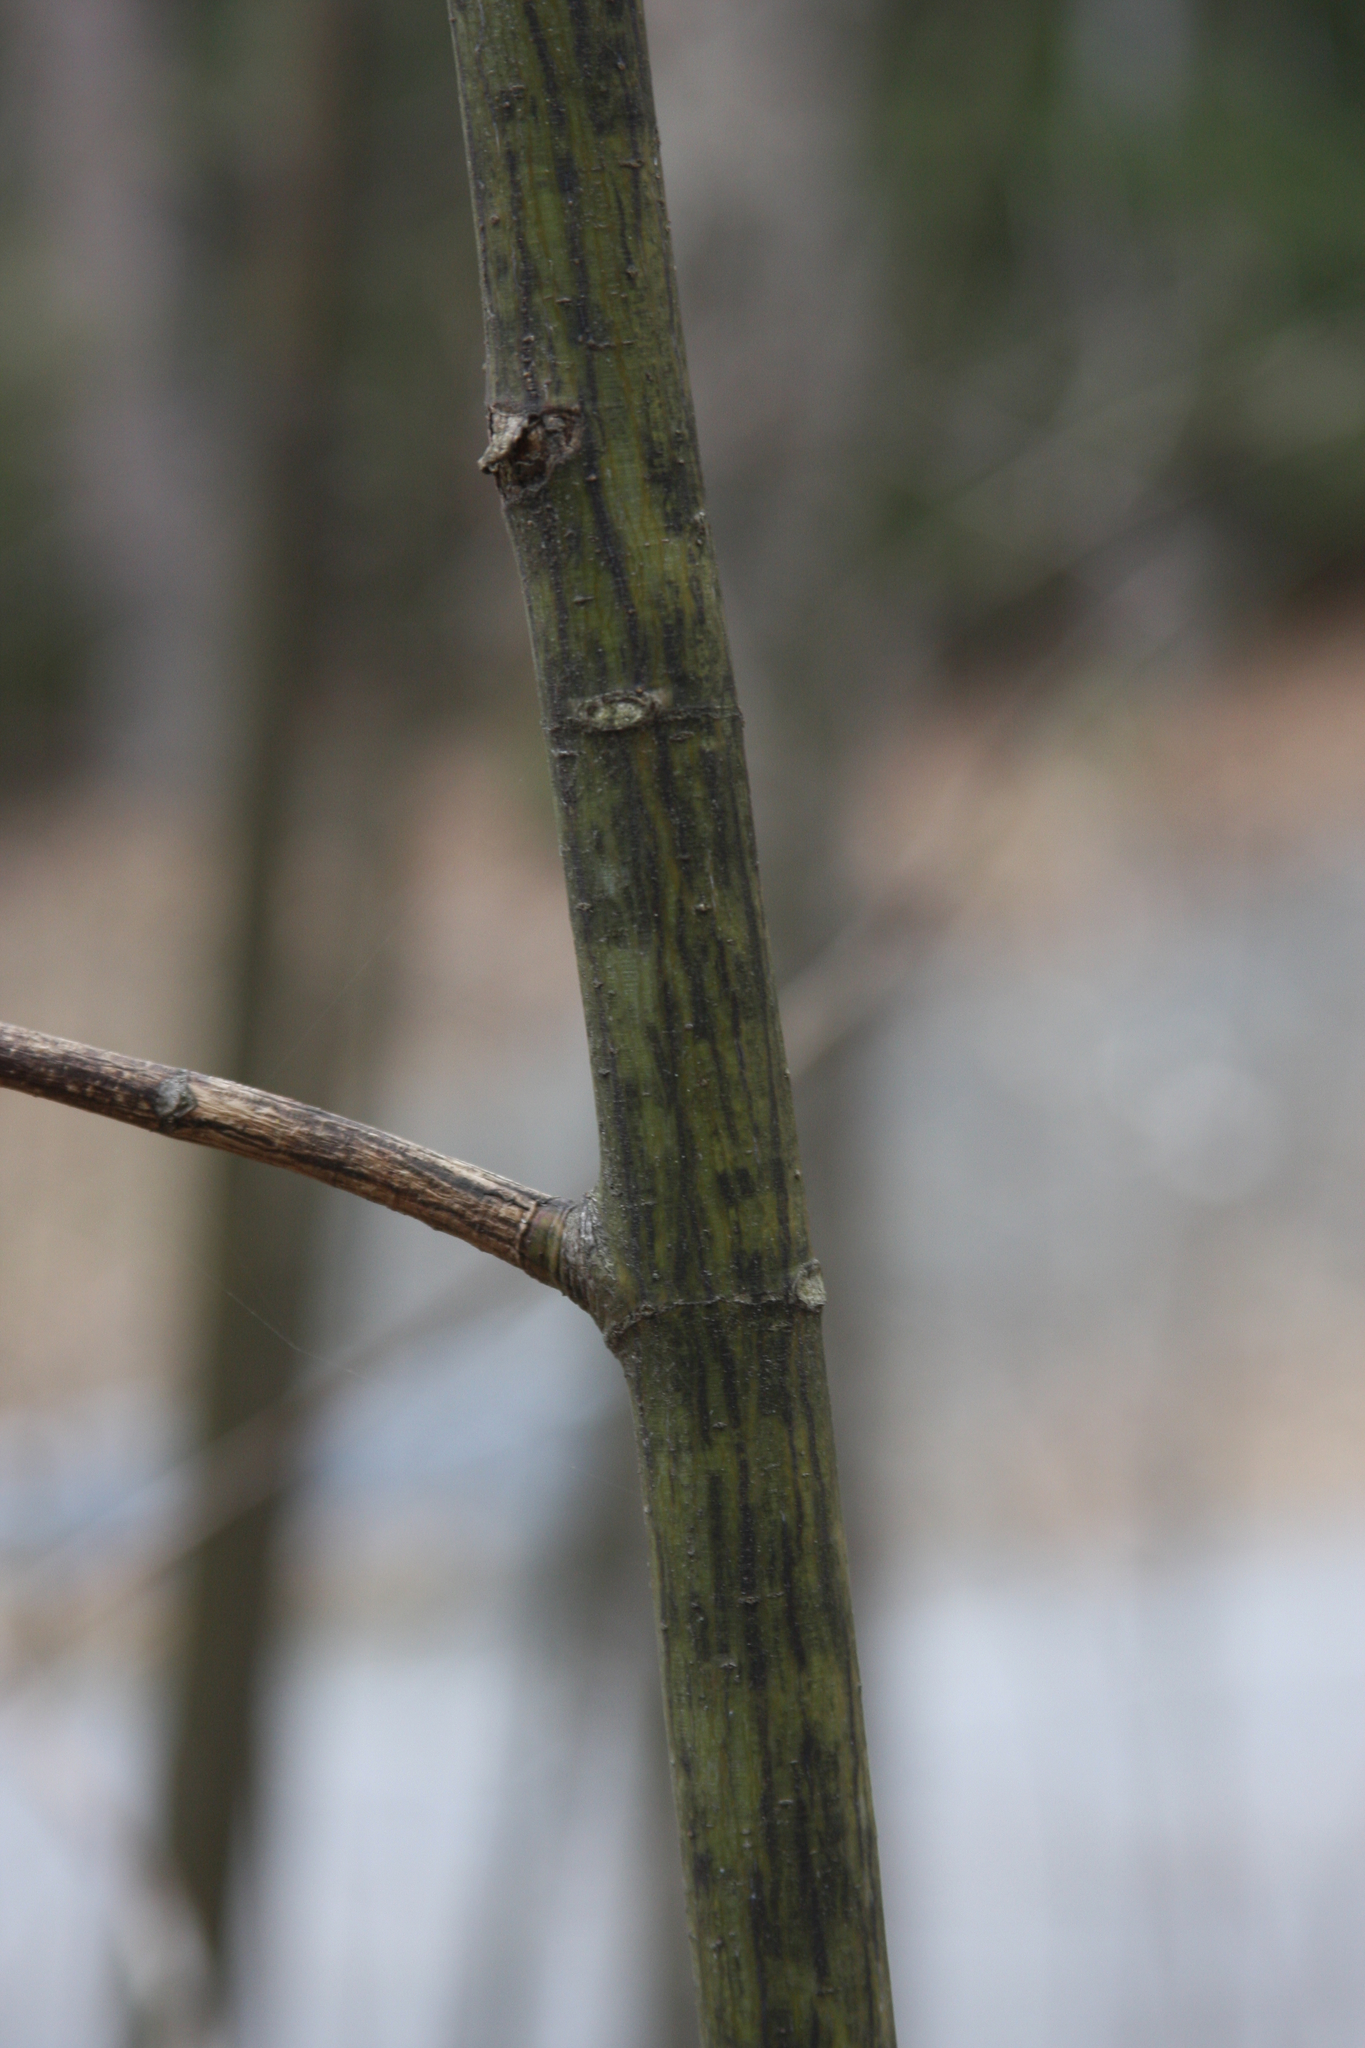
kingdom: Plantae
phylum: Tracheophyta
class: Magnoliopsida
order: Sapindales
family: Sapindaceae
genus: Acer
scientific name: Acer pensylvanicum
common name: Moosewood
